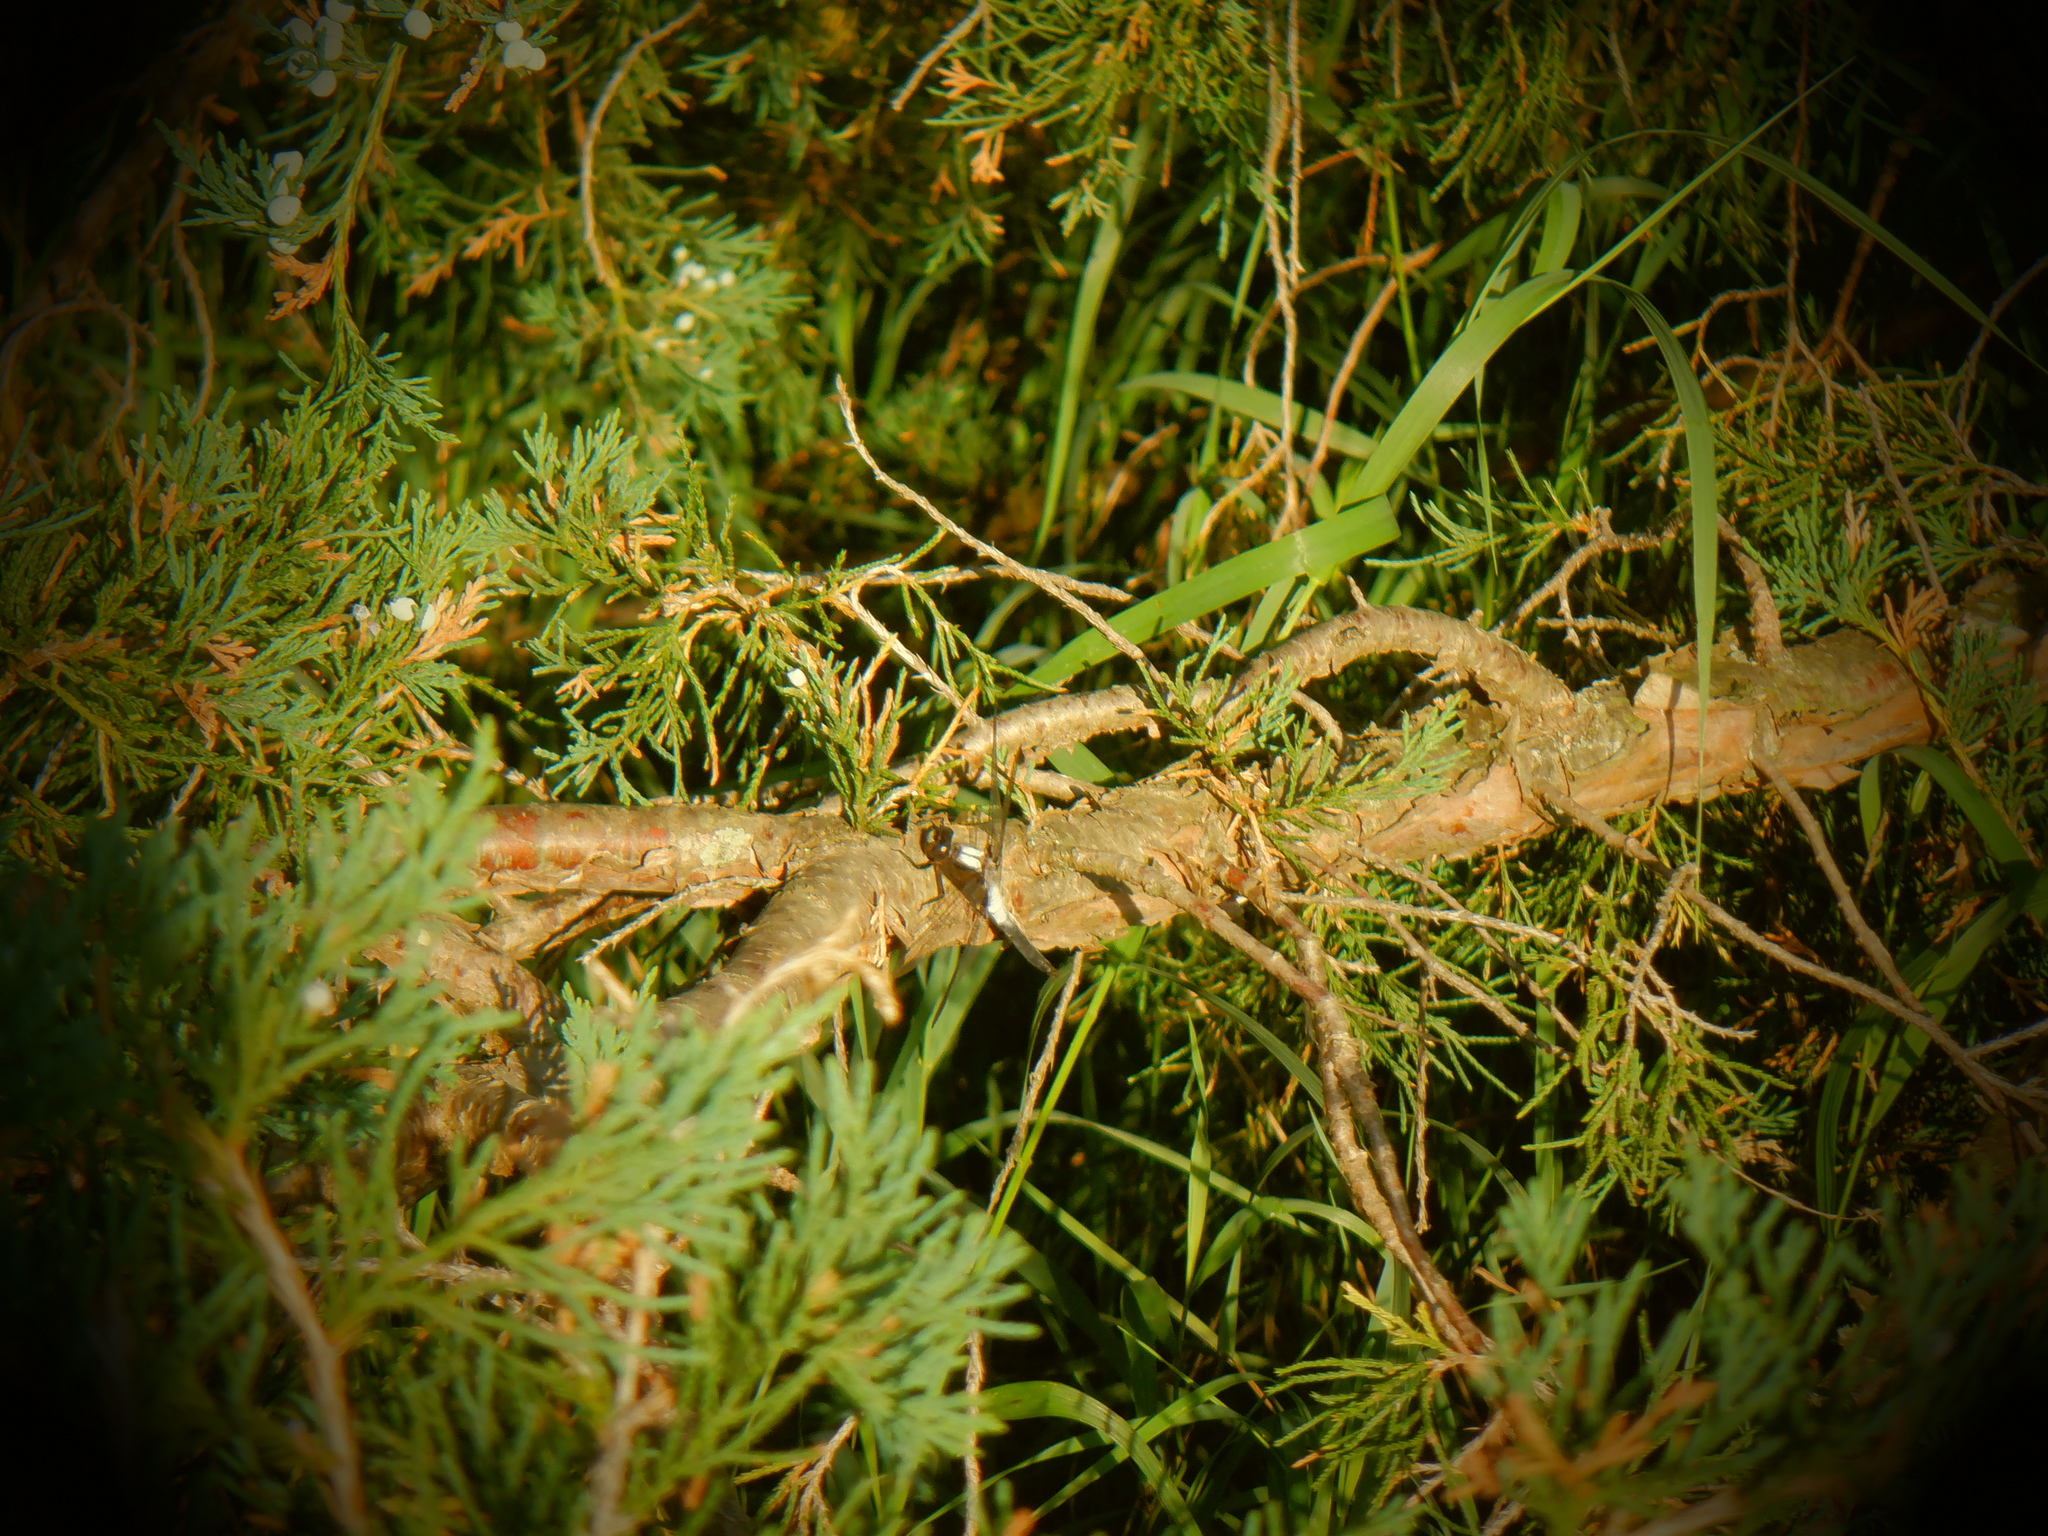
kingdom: Animalia
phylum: Arthropoda
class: Insecta
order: Odonata
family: Libellulidae
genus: Ladona
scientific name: Ladona julia
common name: Chalk-fronted corporal
